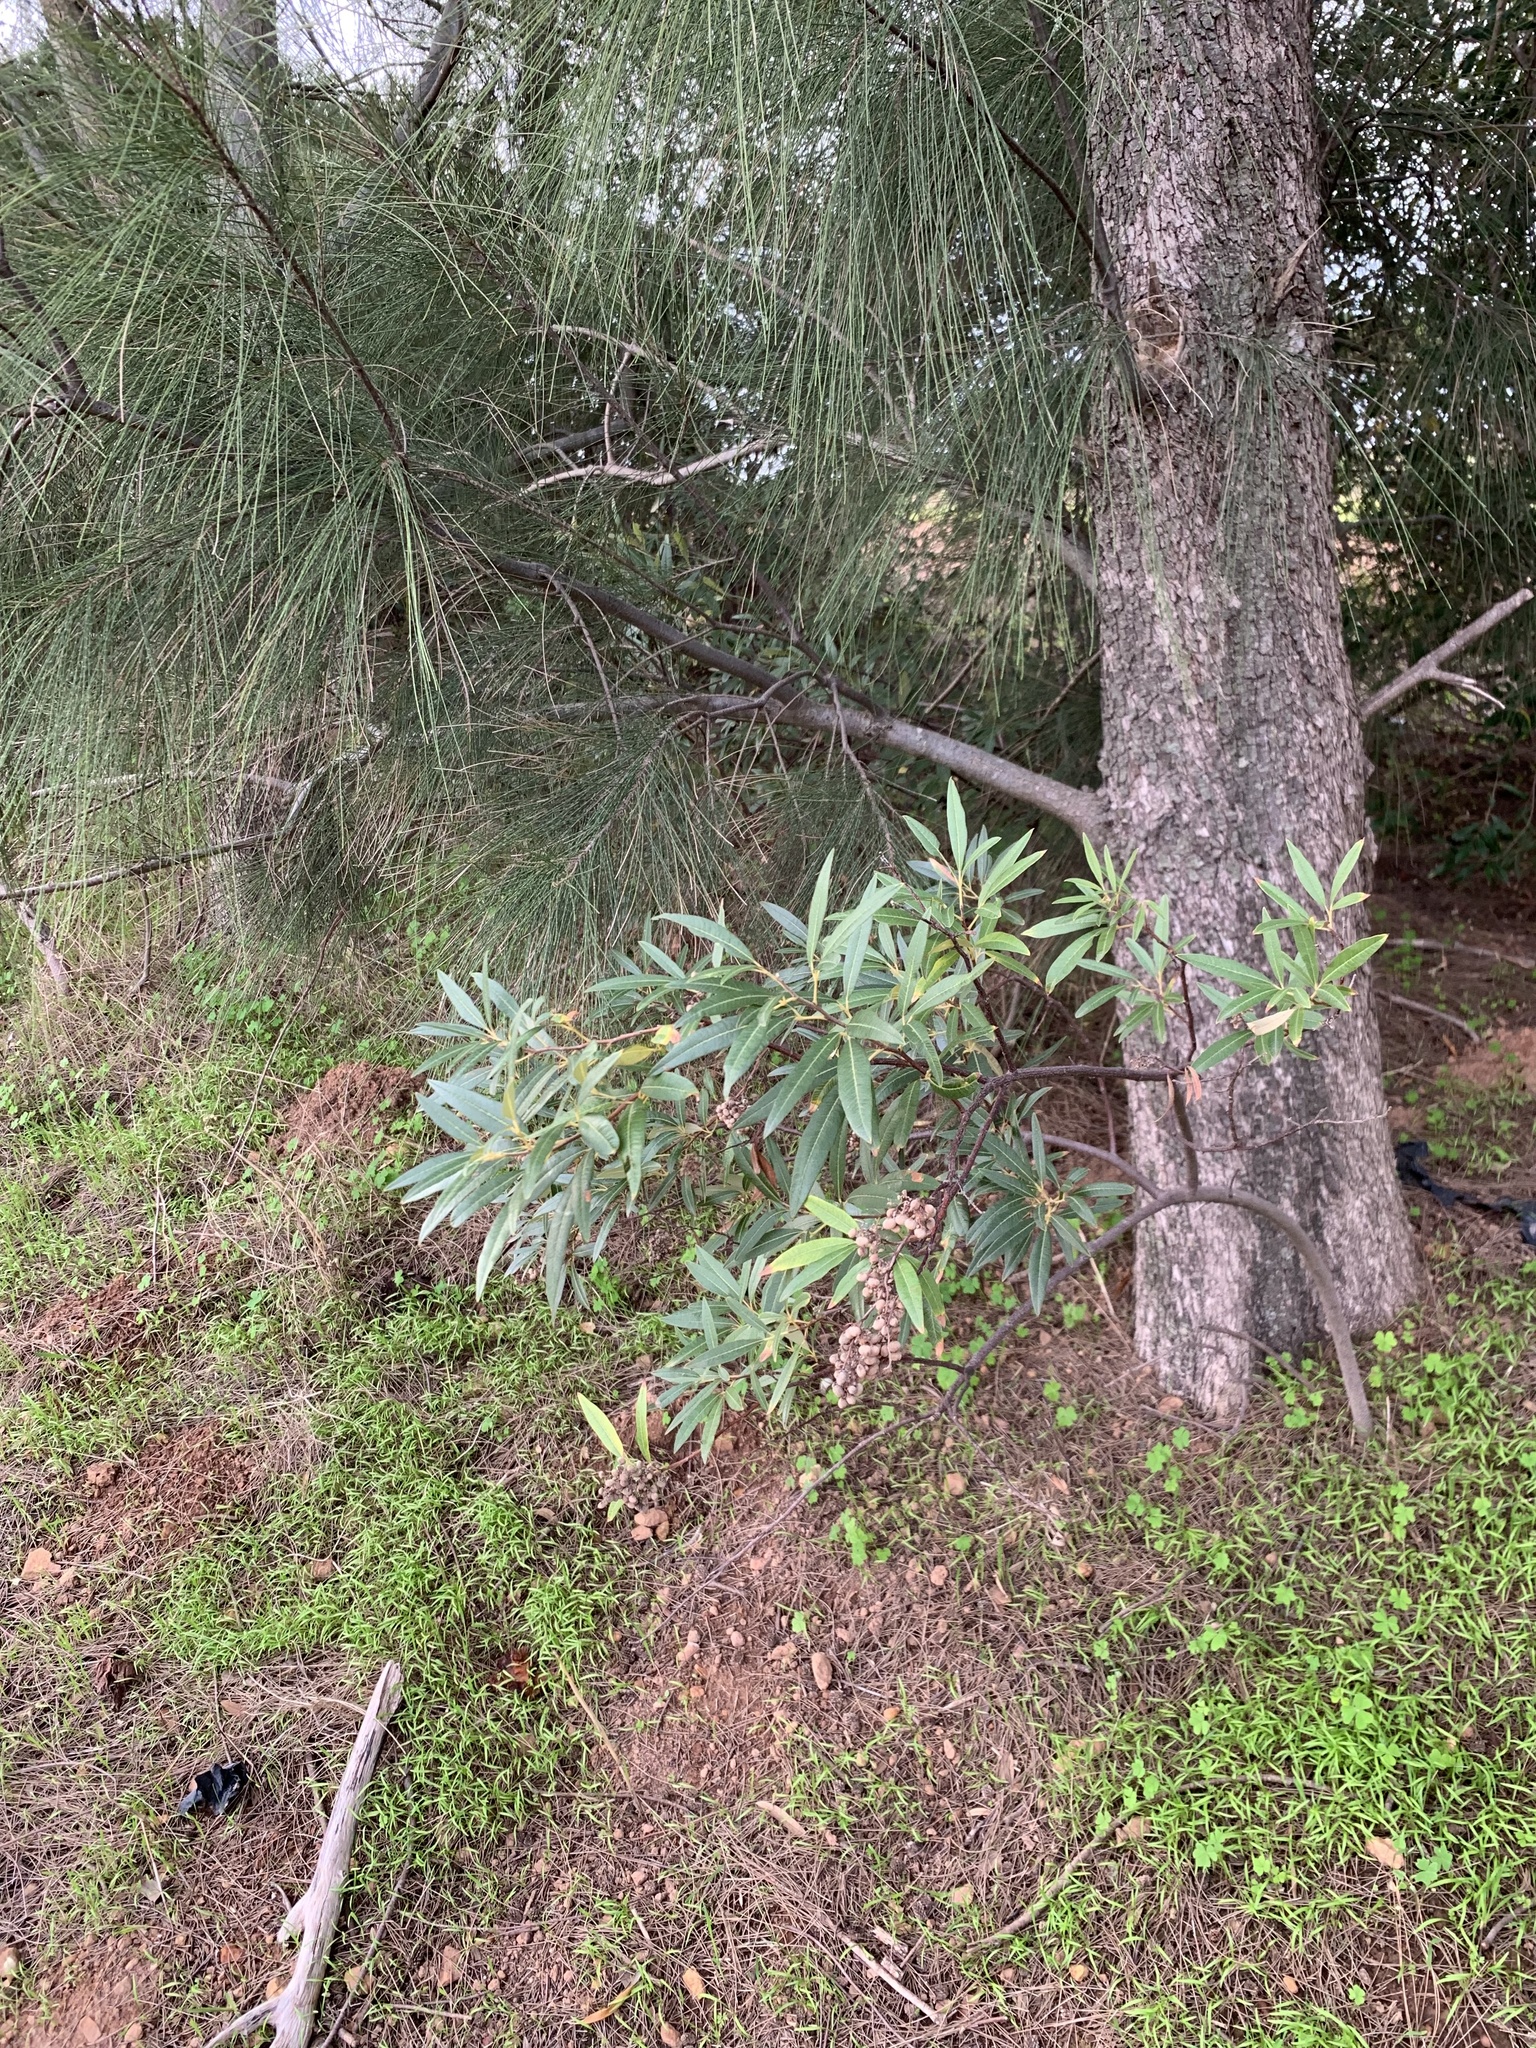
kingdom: Plantae
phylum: Tracheophyta
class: Magnoliopsida
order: Sapindales
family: Anacardiaceae
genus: Searsia
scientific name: Searsia angustifolia
